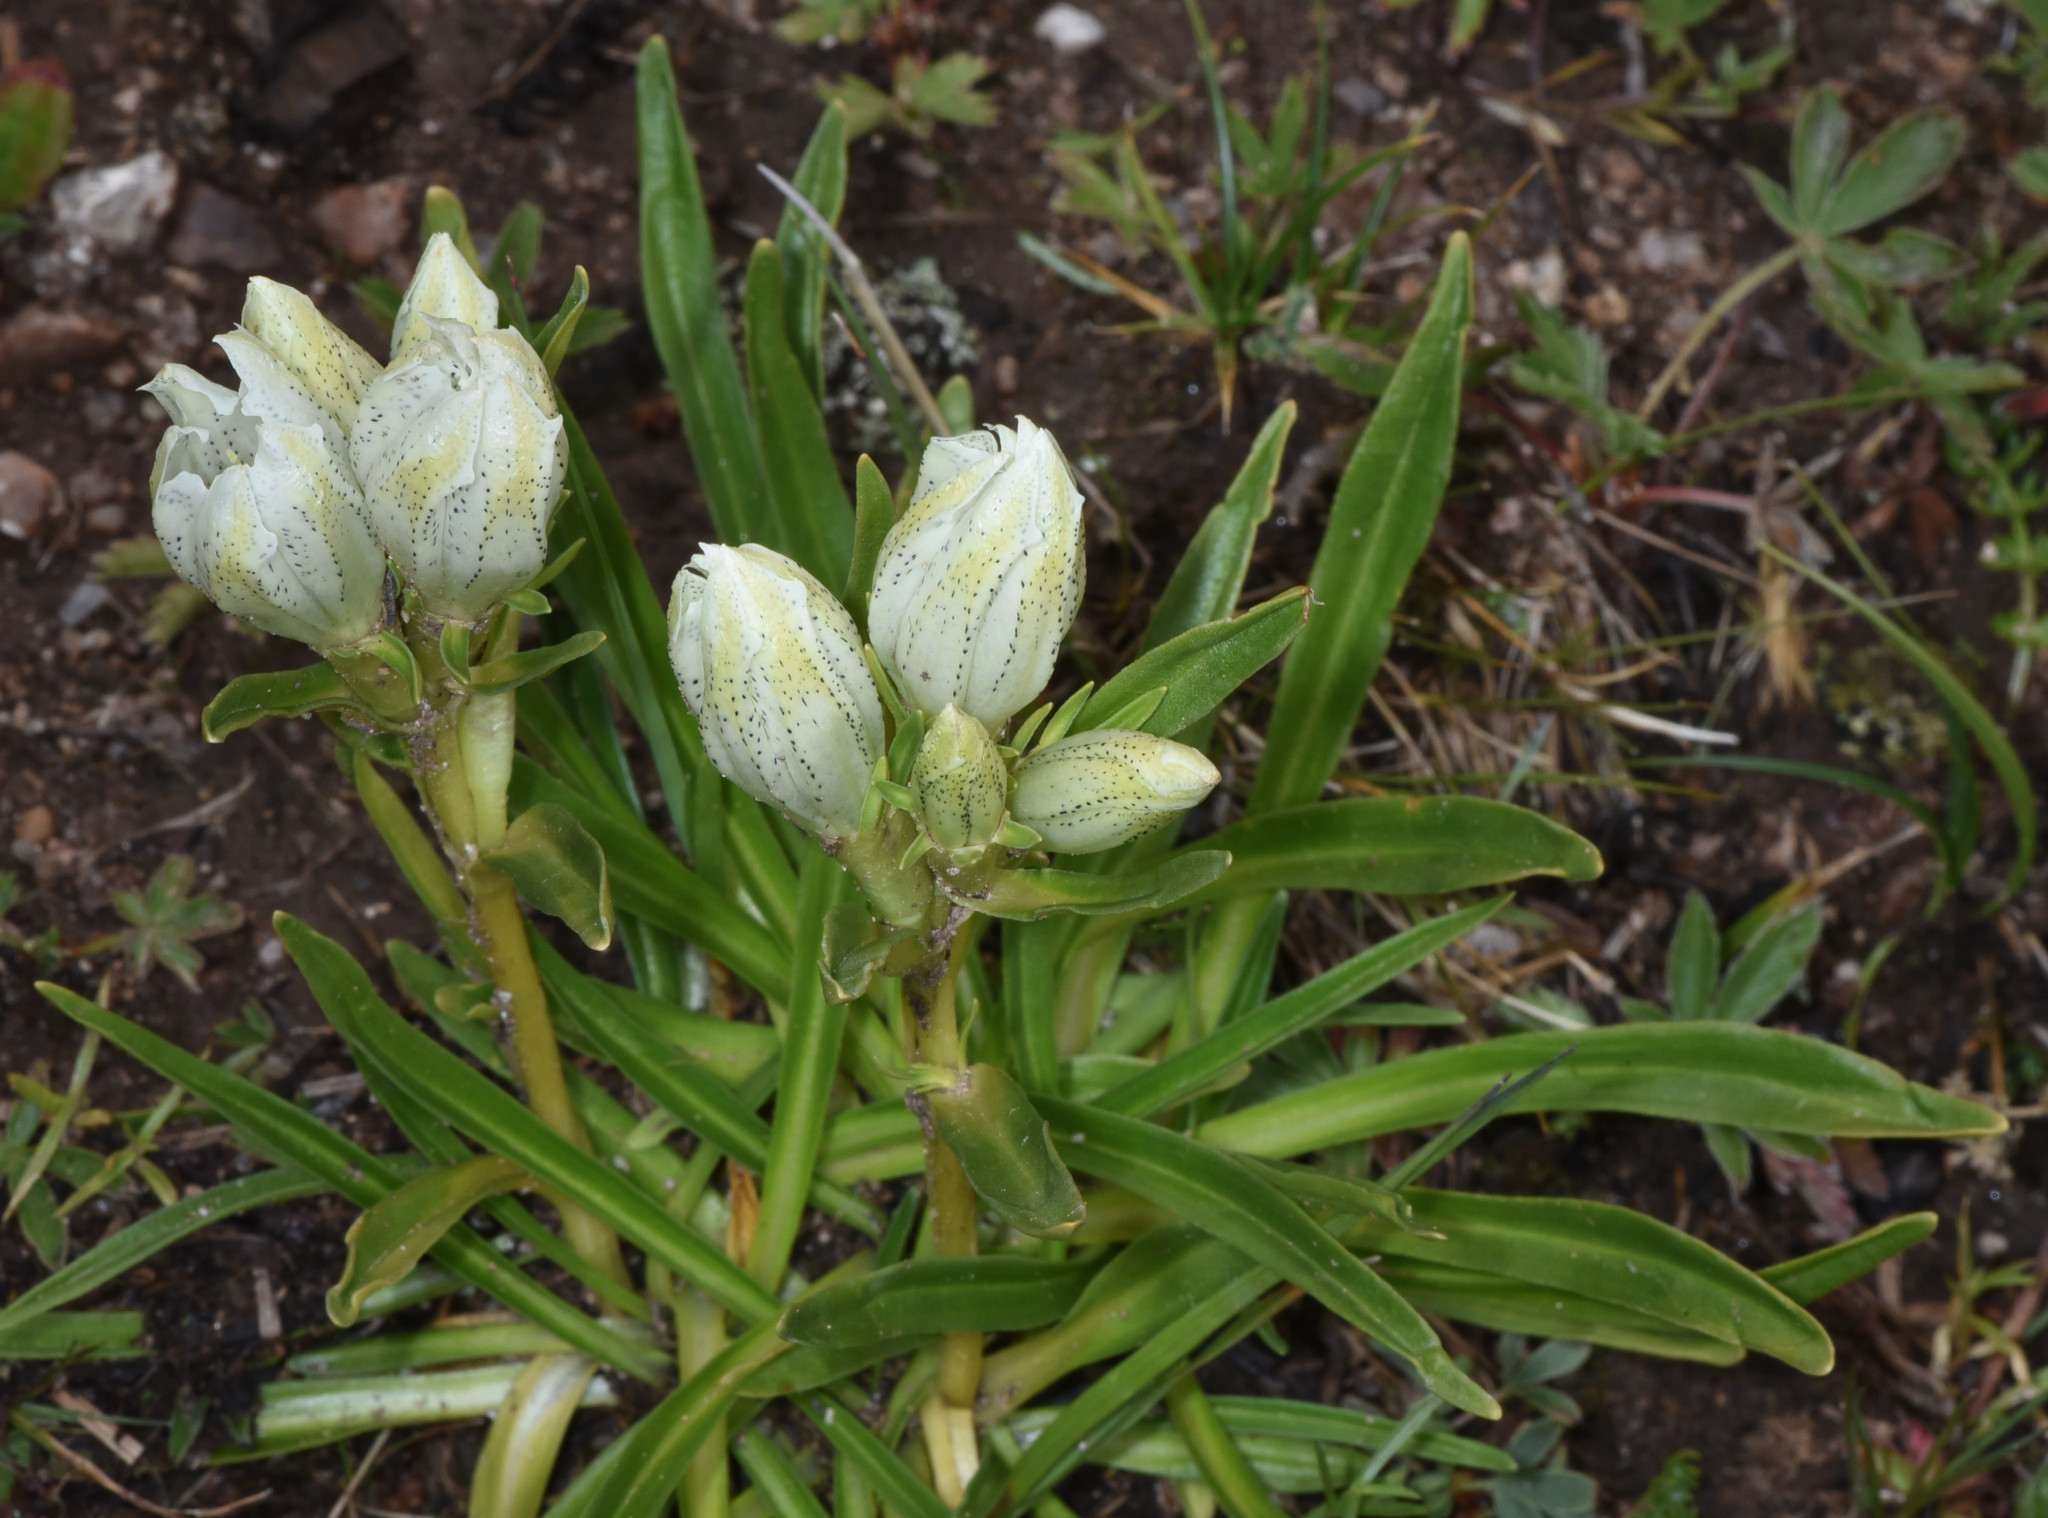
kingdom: Plantae
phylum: Tracheophyta
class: Magnoliopsida
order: Gentianales
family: Gentianaceae
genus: Gentiana
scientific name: Gentiana algida
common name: Arctic gentian
